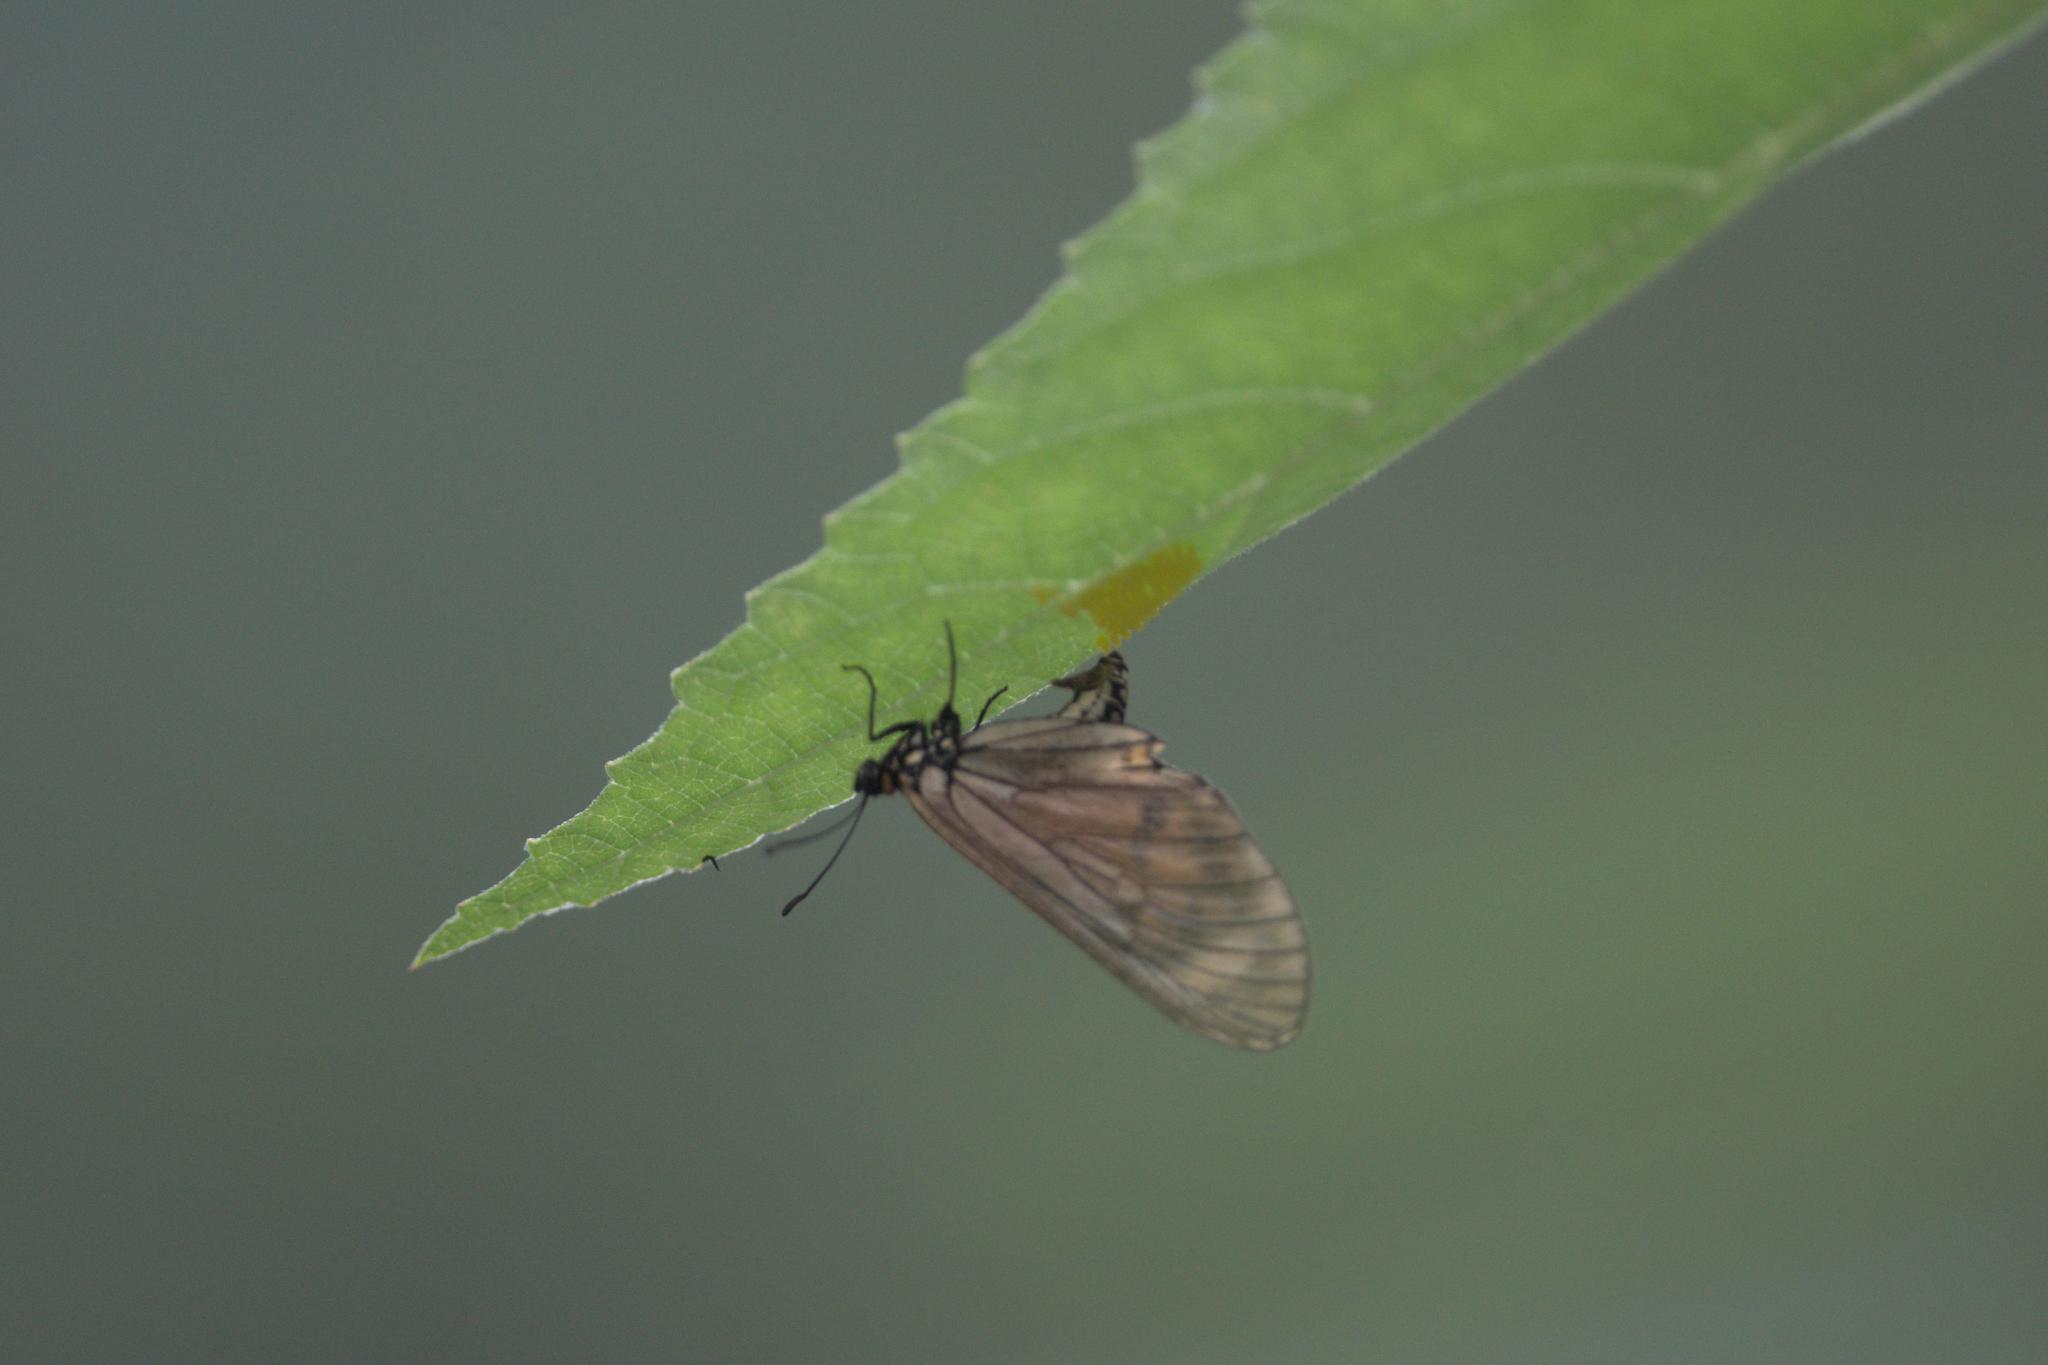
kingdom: Animalia
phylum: Arthropoda
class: Insecta
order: Lepidoptera
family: Nymphalidae
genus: Acraea
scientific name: Acraea Telchinia issoria
